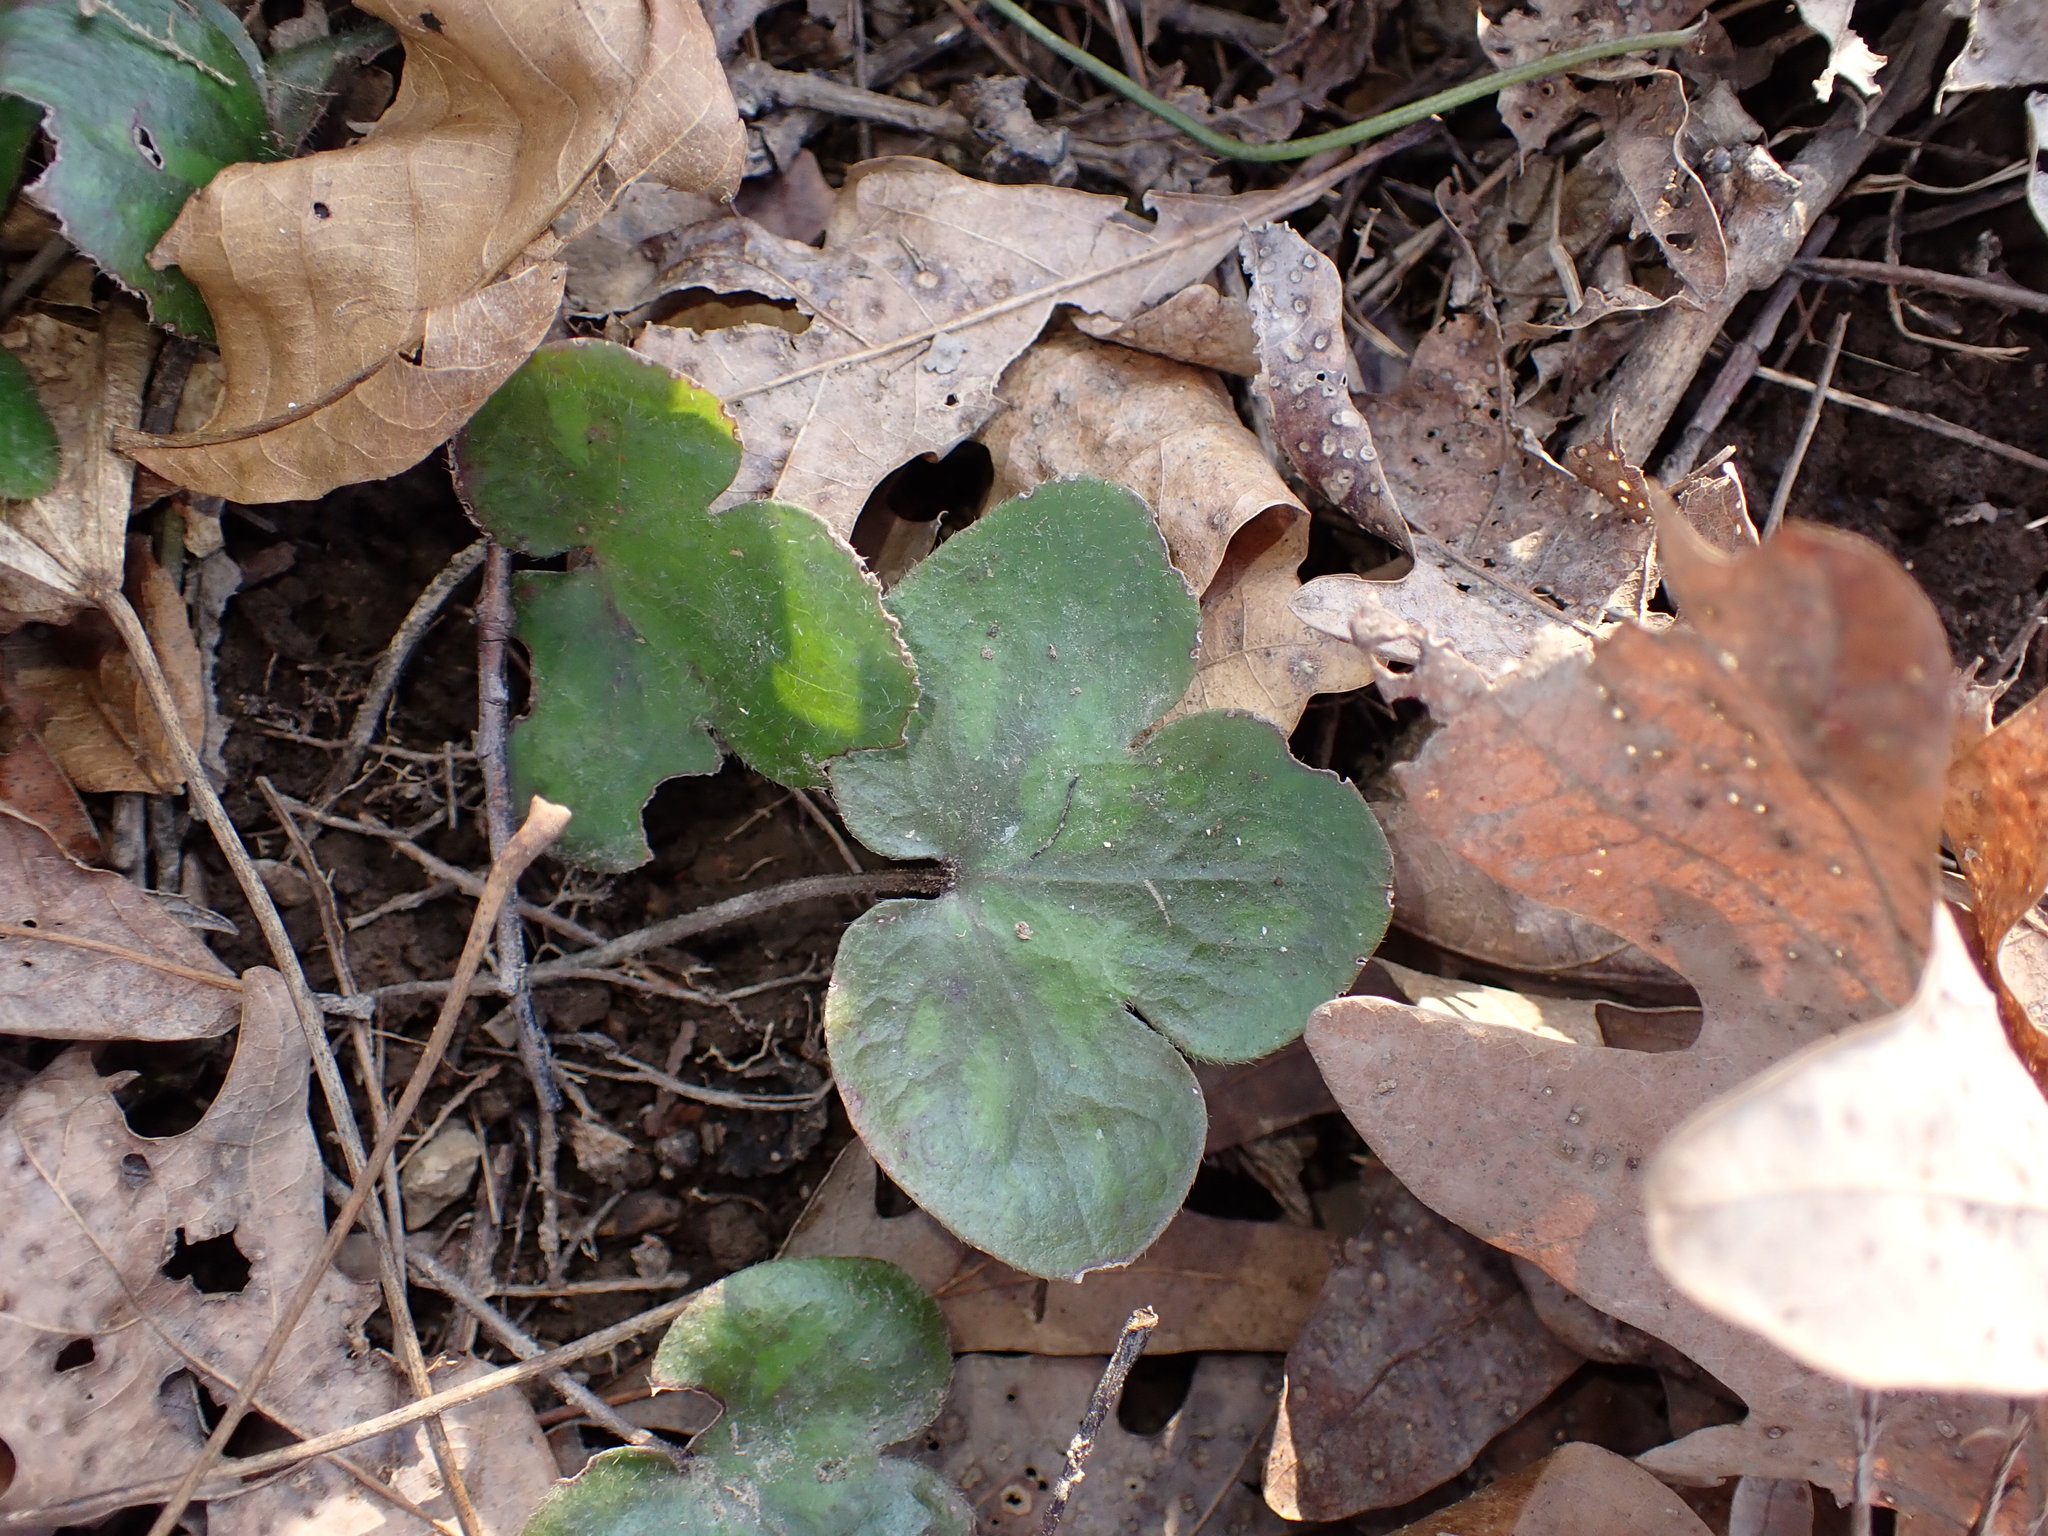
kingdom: Plantae
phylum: Tracheophyta
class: Magnoliopsida
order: Ranunculales
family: Ranunculaceae
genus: Hepatica
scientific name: Hepatica americana
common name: American hepatica
